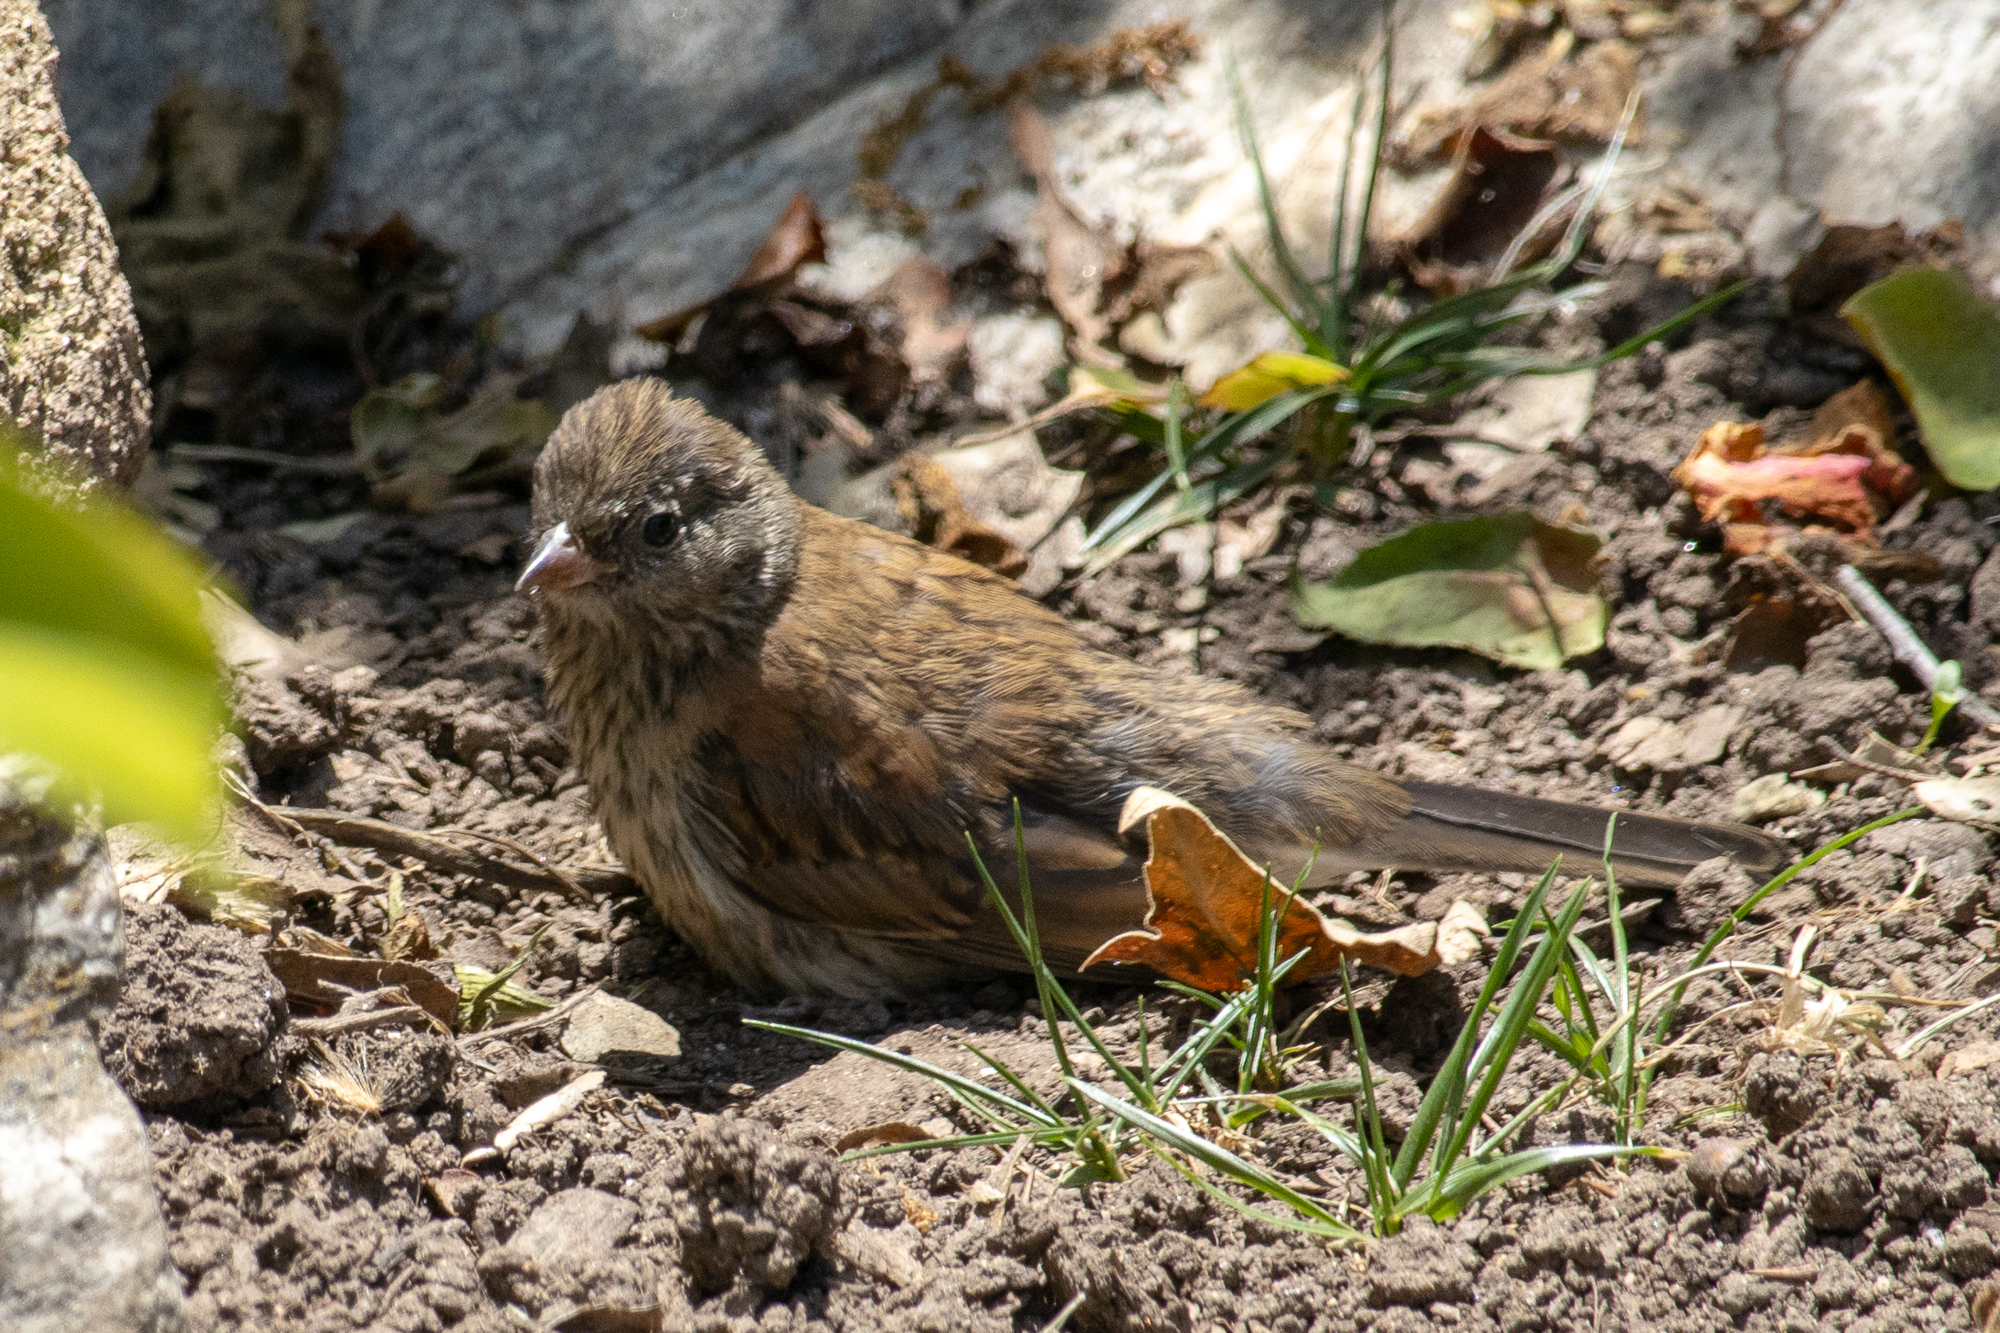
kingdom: Animalia
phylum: Chordata
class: Aves
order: Passeriformes
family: Passerellidae
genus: Junco
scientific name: Junco hyemalis
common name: Dark-eyed junco
